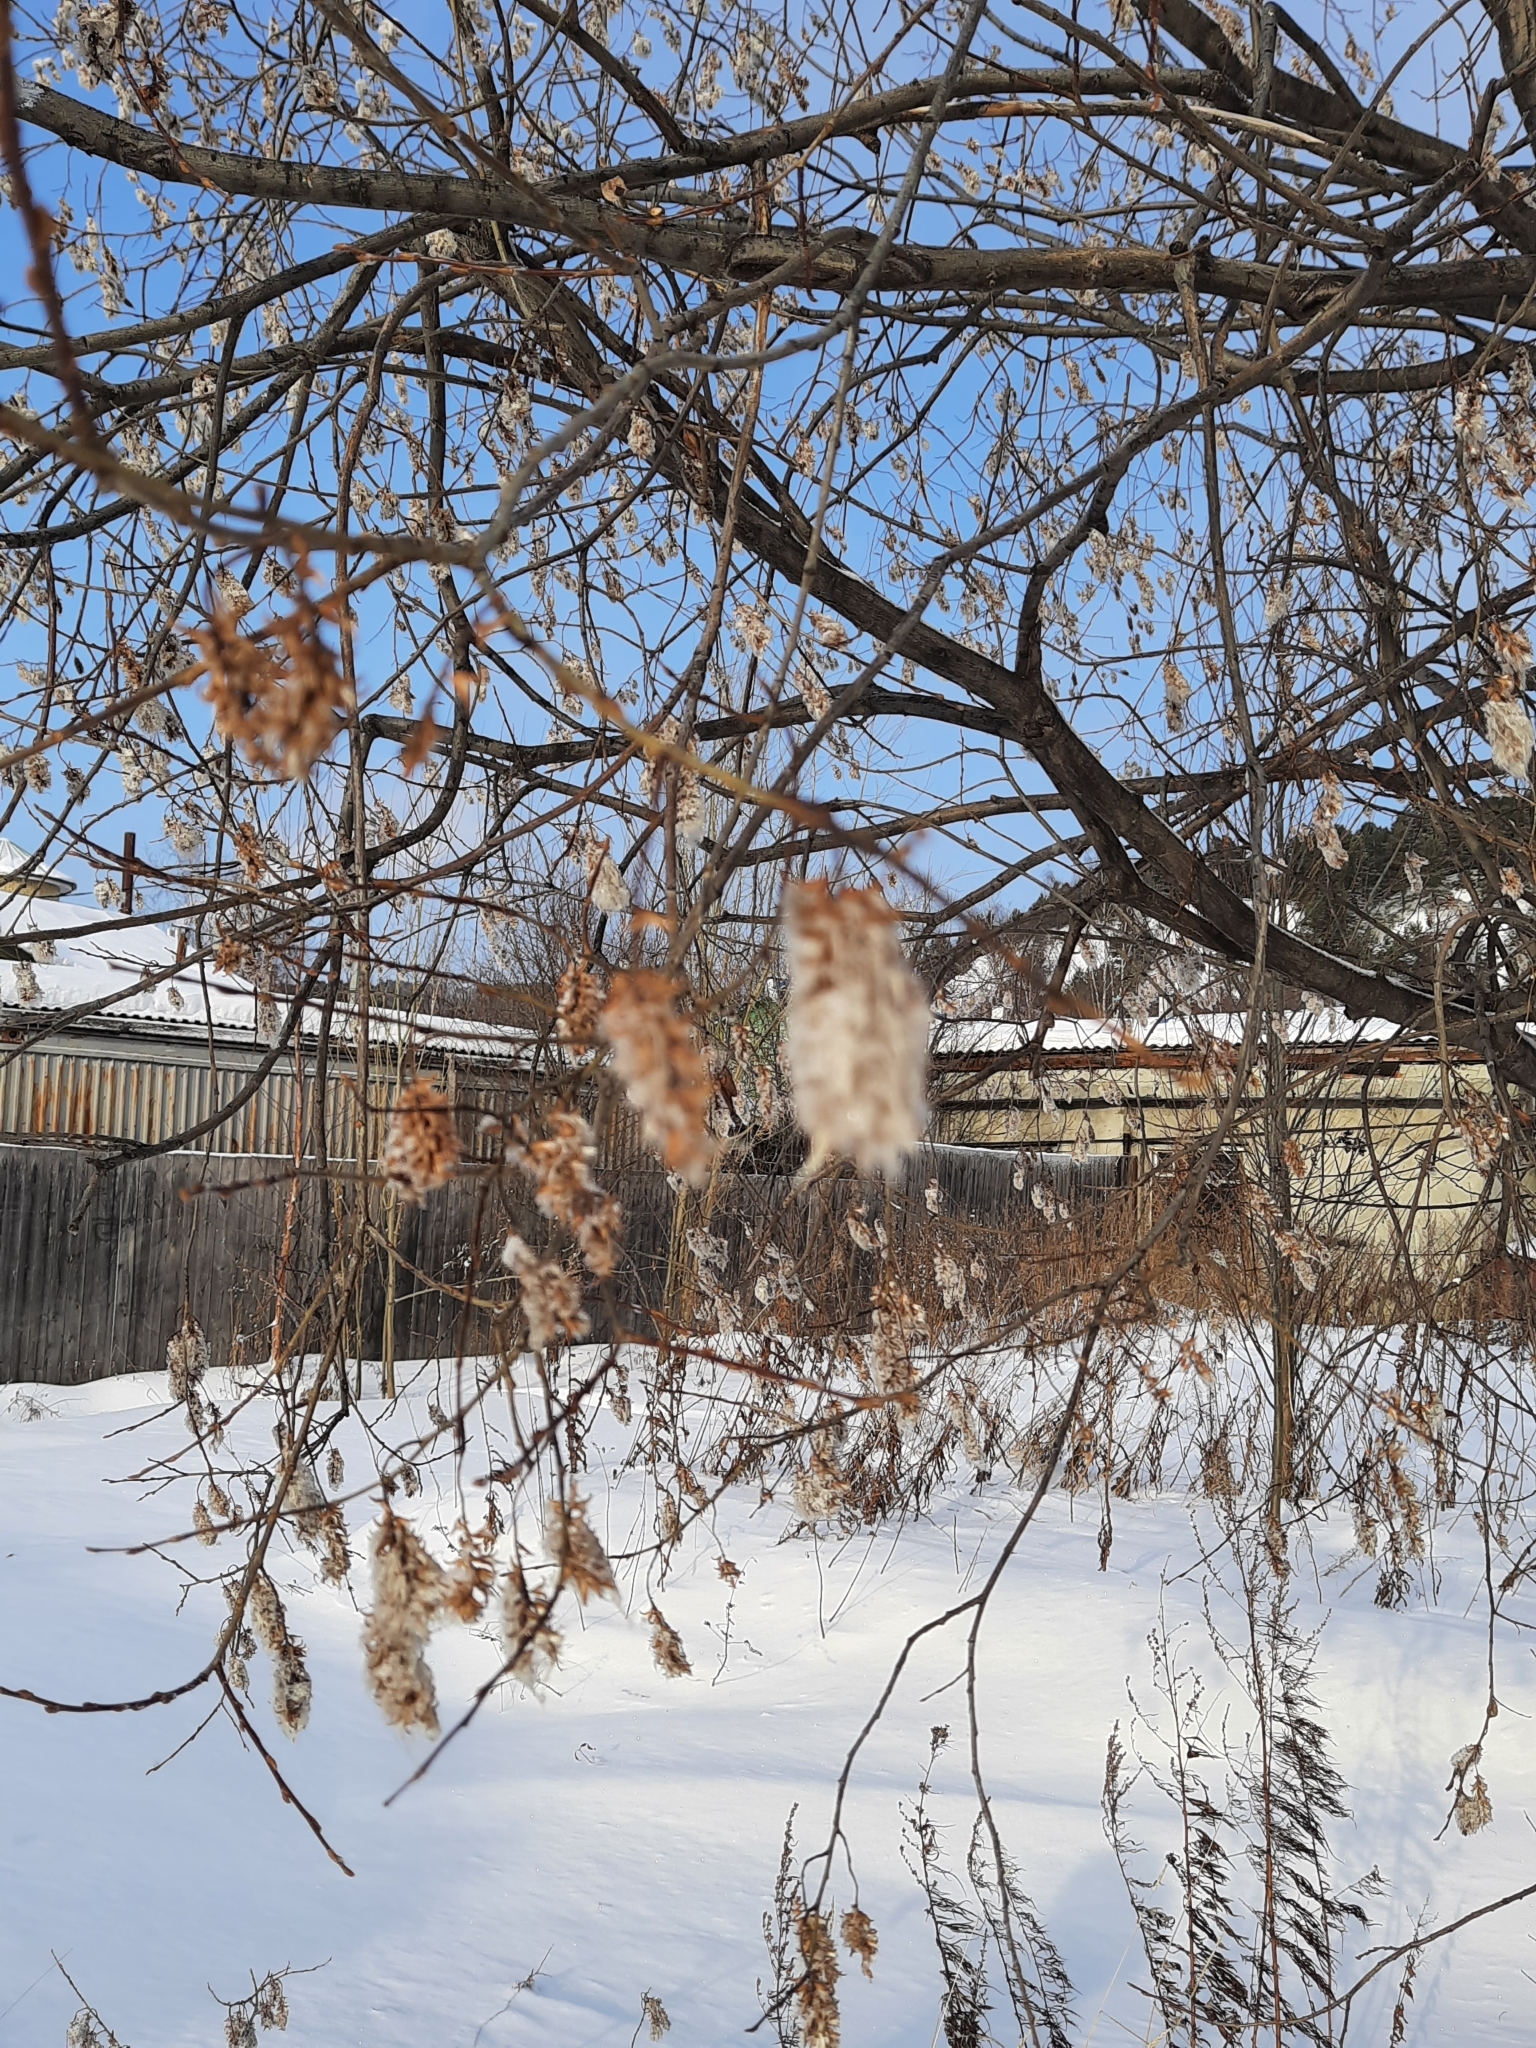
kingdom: Plantae
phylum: Tracheophyta
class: Magnoliopsida
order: Malpighiales
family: Salicaceae
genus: Salix
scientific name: Salix pentandra
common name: Bay willow
